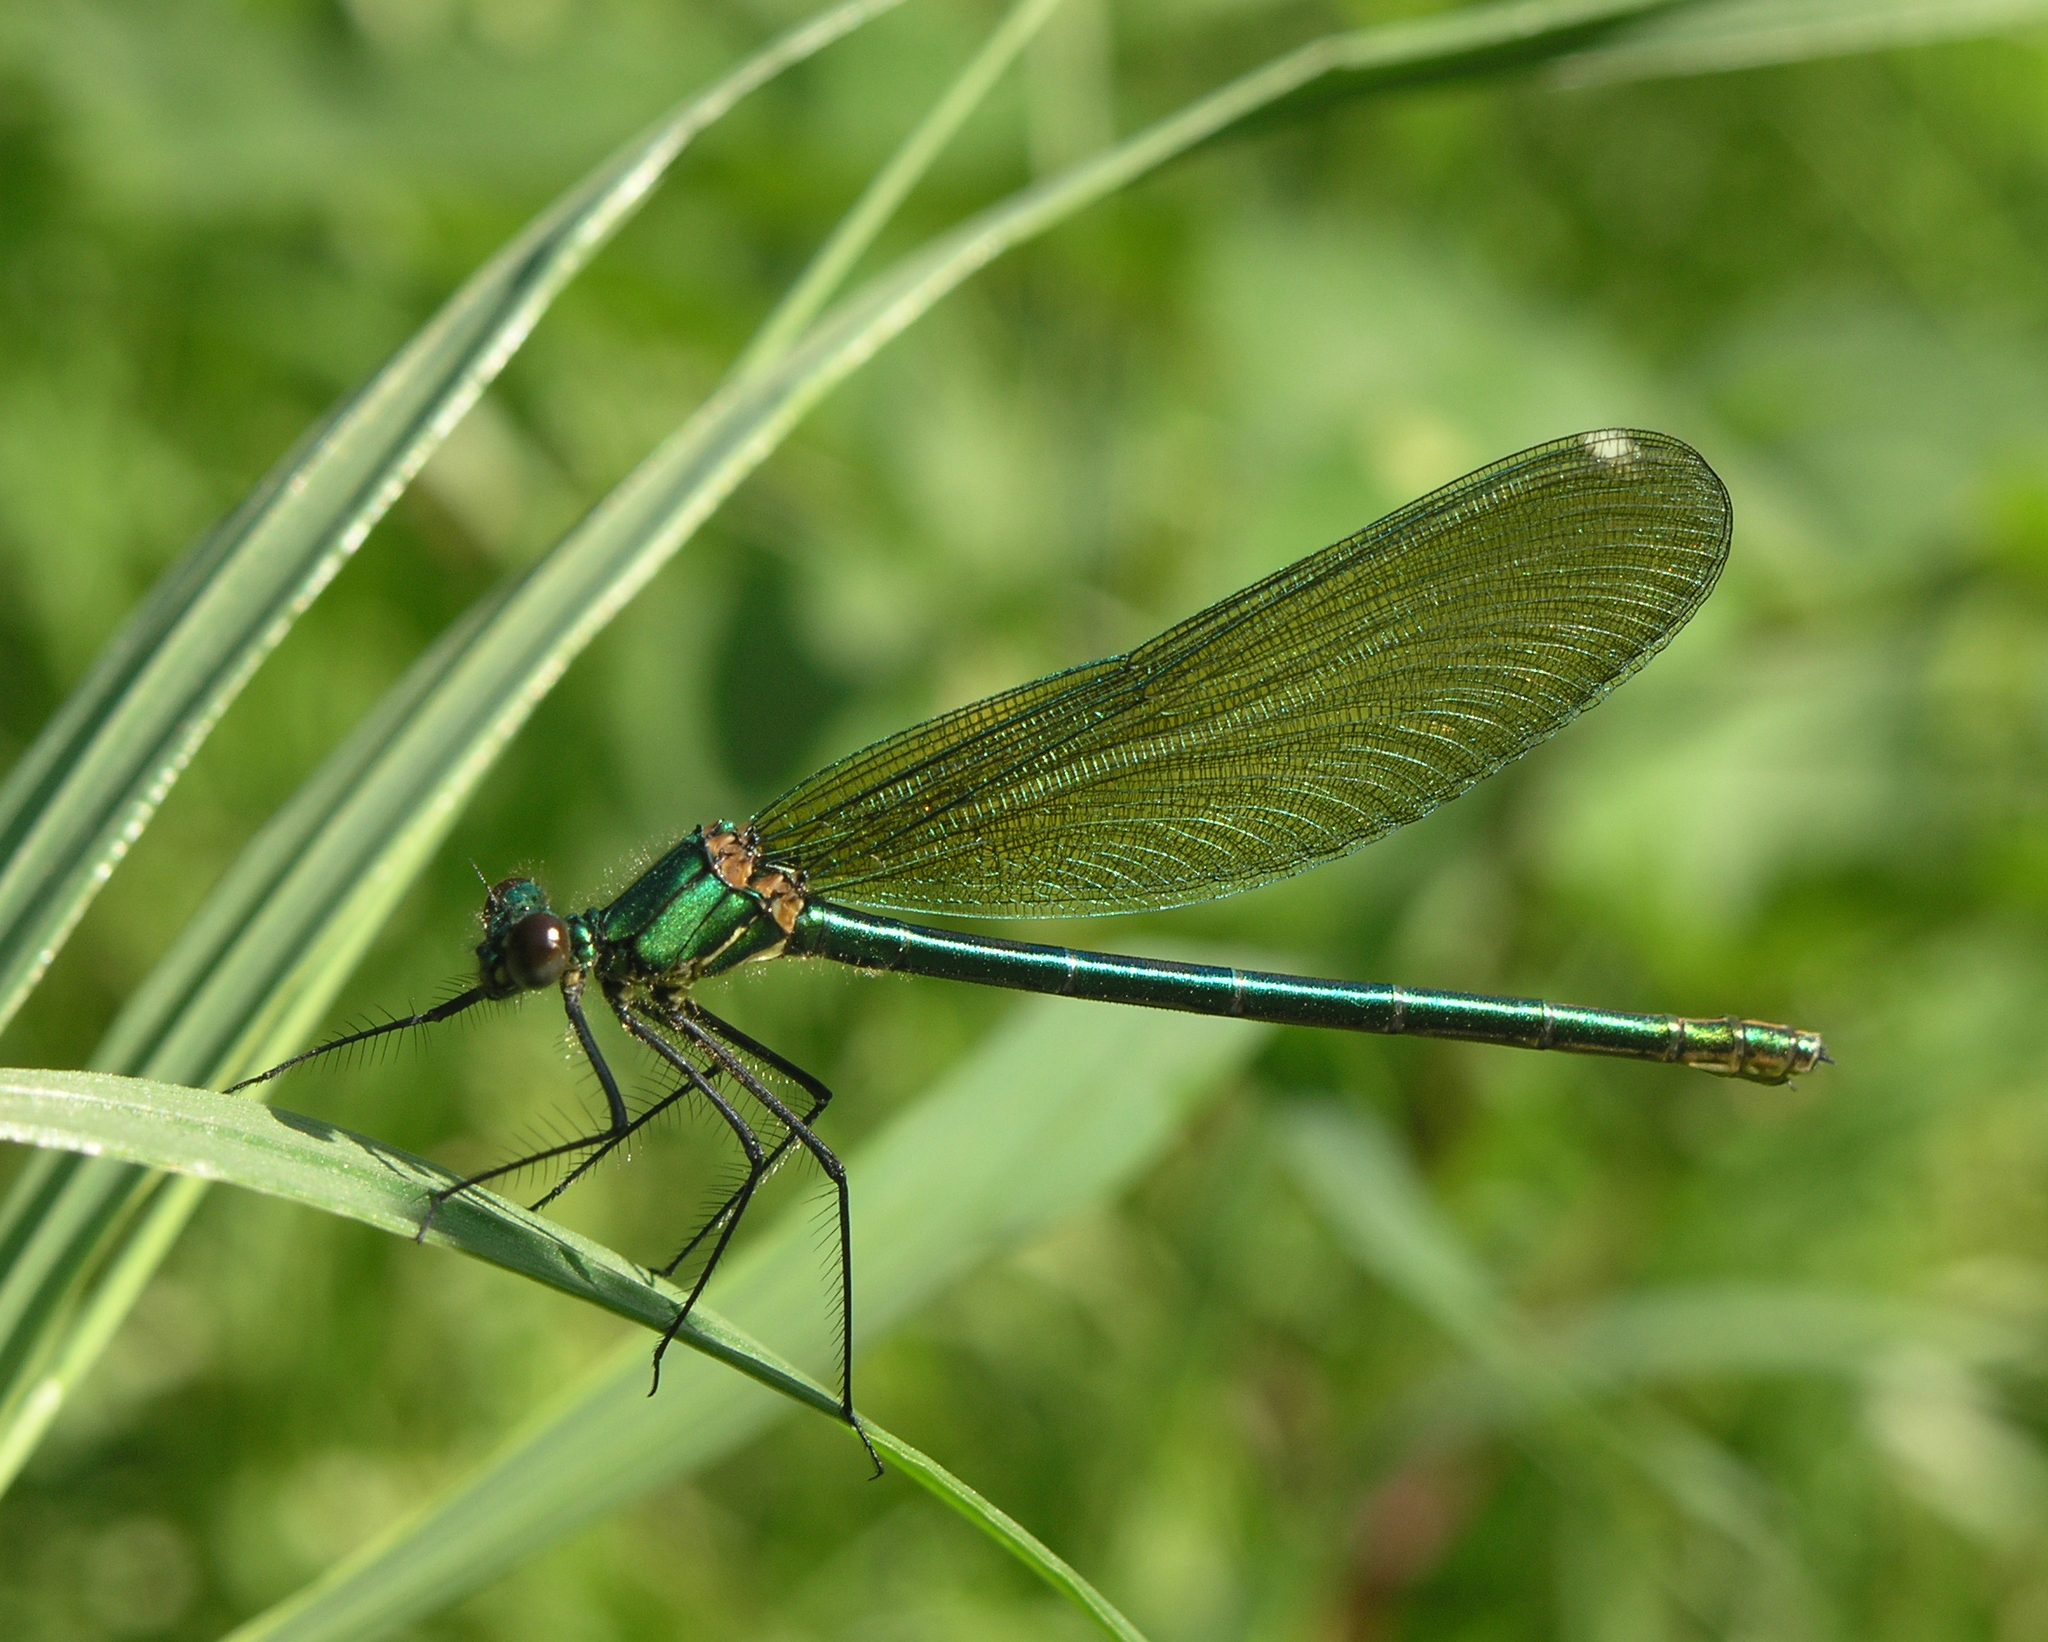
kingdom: Animalia
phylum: Arthropoda
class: Insecta
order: Odonata
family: Calopterygidae
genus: Calopteryx
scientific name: Calopteryx splendens
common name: Banded demoiselle
